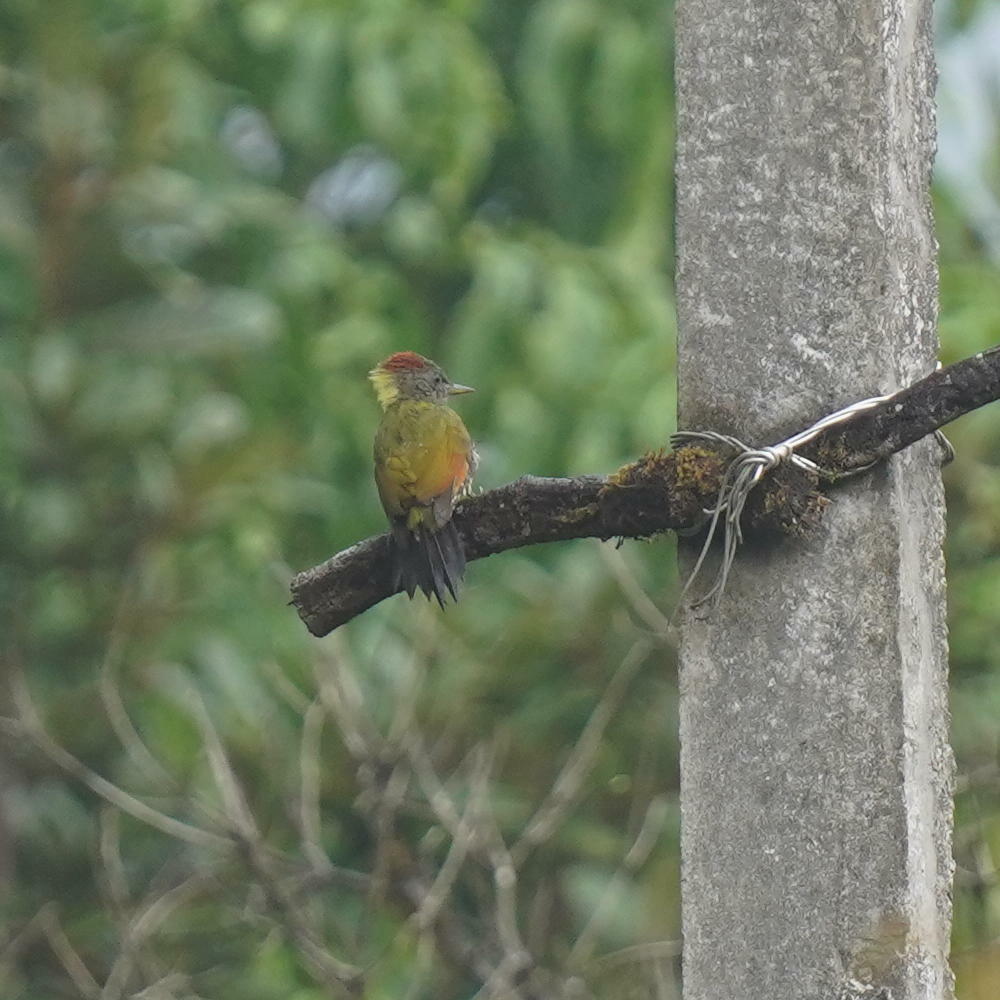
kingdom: Animalia
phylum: Chordata
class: Aves
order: Piciformes
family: Picidae
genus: Picus
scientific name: Picus chlorolophus
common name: Lesser yellownape
